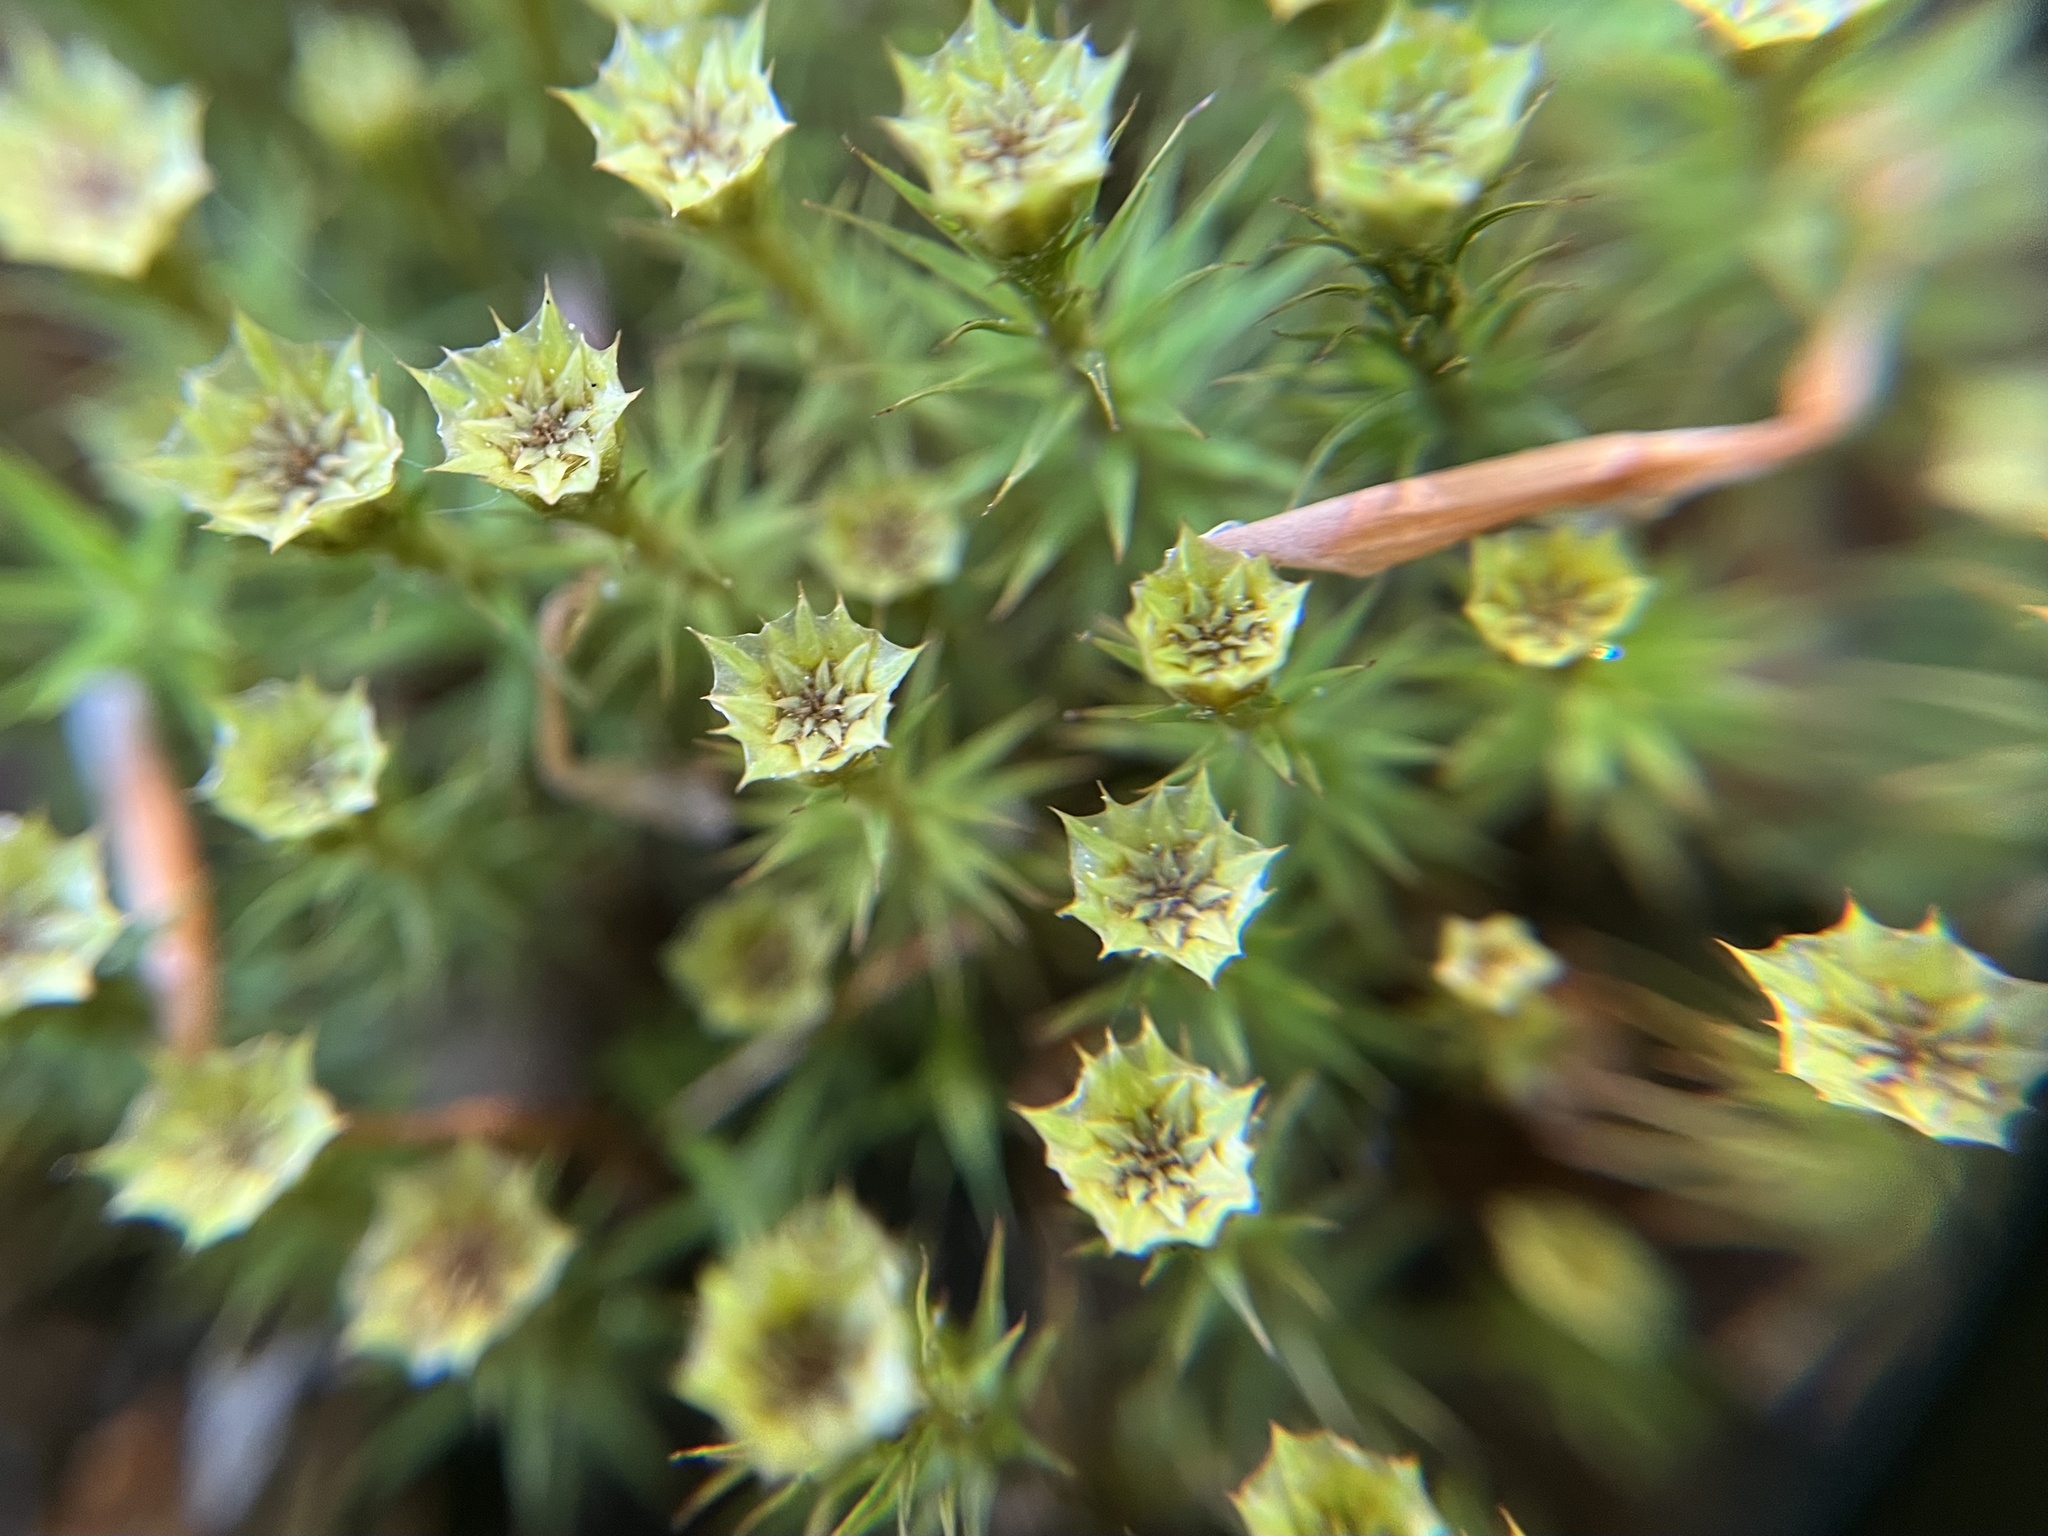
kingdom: Plantae
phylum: Bryophyta
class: Polytrichopsida
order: Polytrichales
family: Polytrichaceae
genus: Polytrichum
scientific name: Polytrichum formosum
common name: Bank haircap moss
